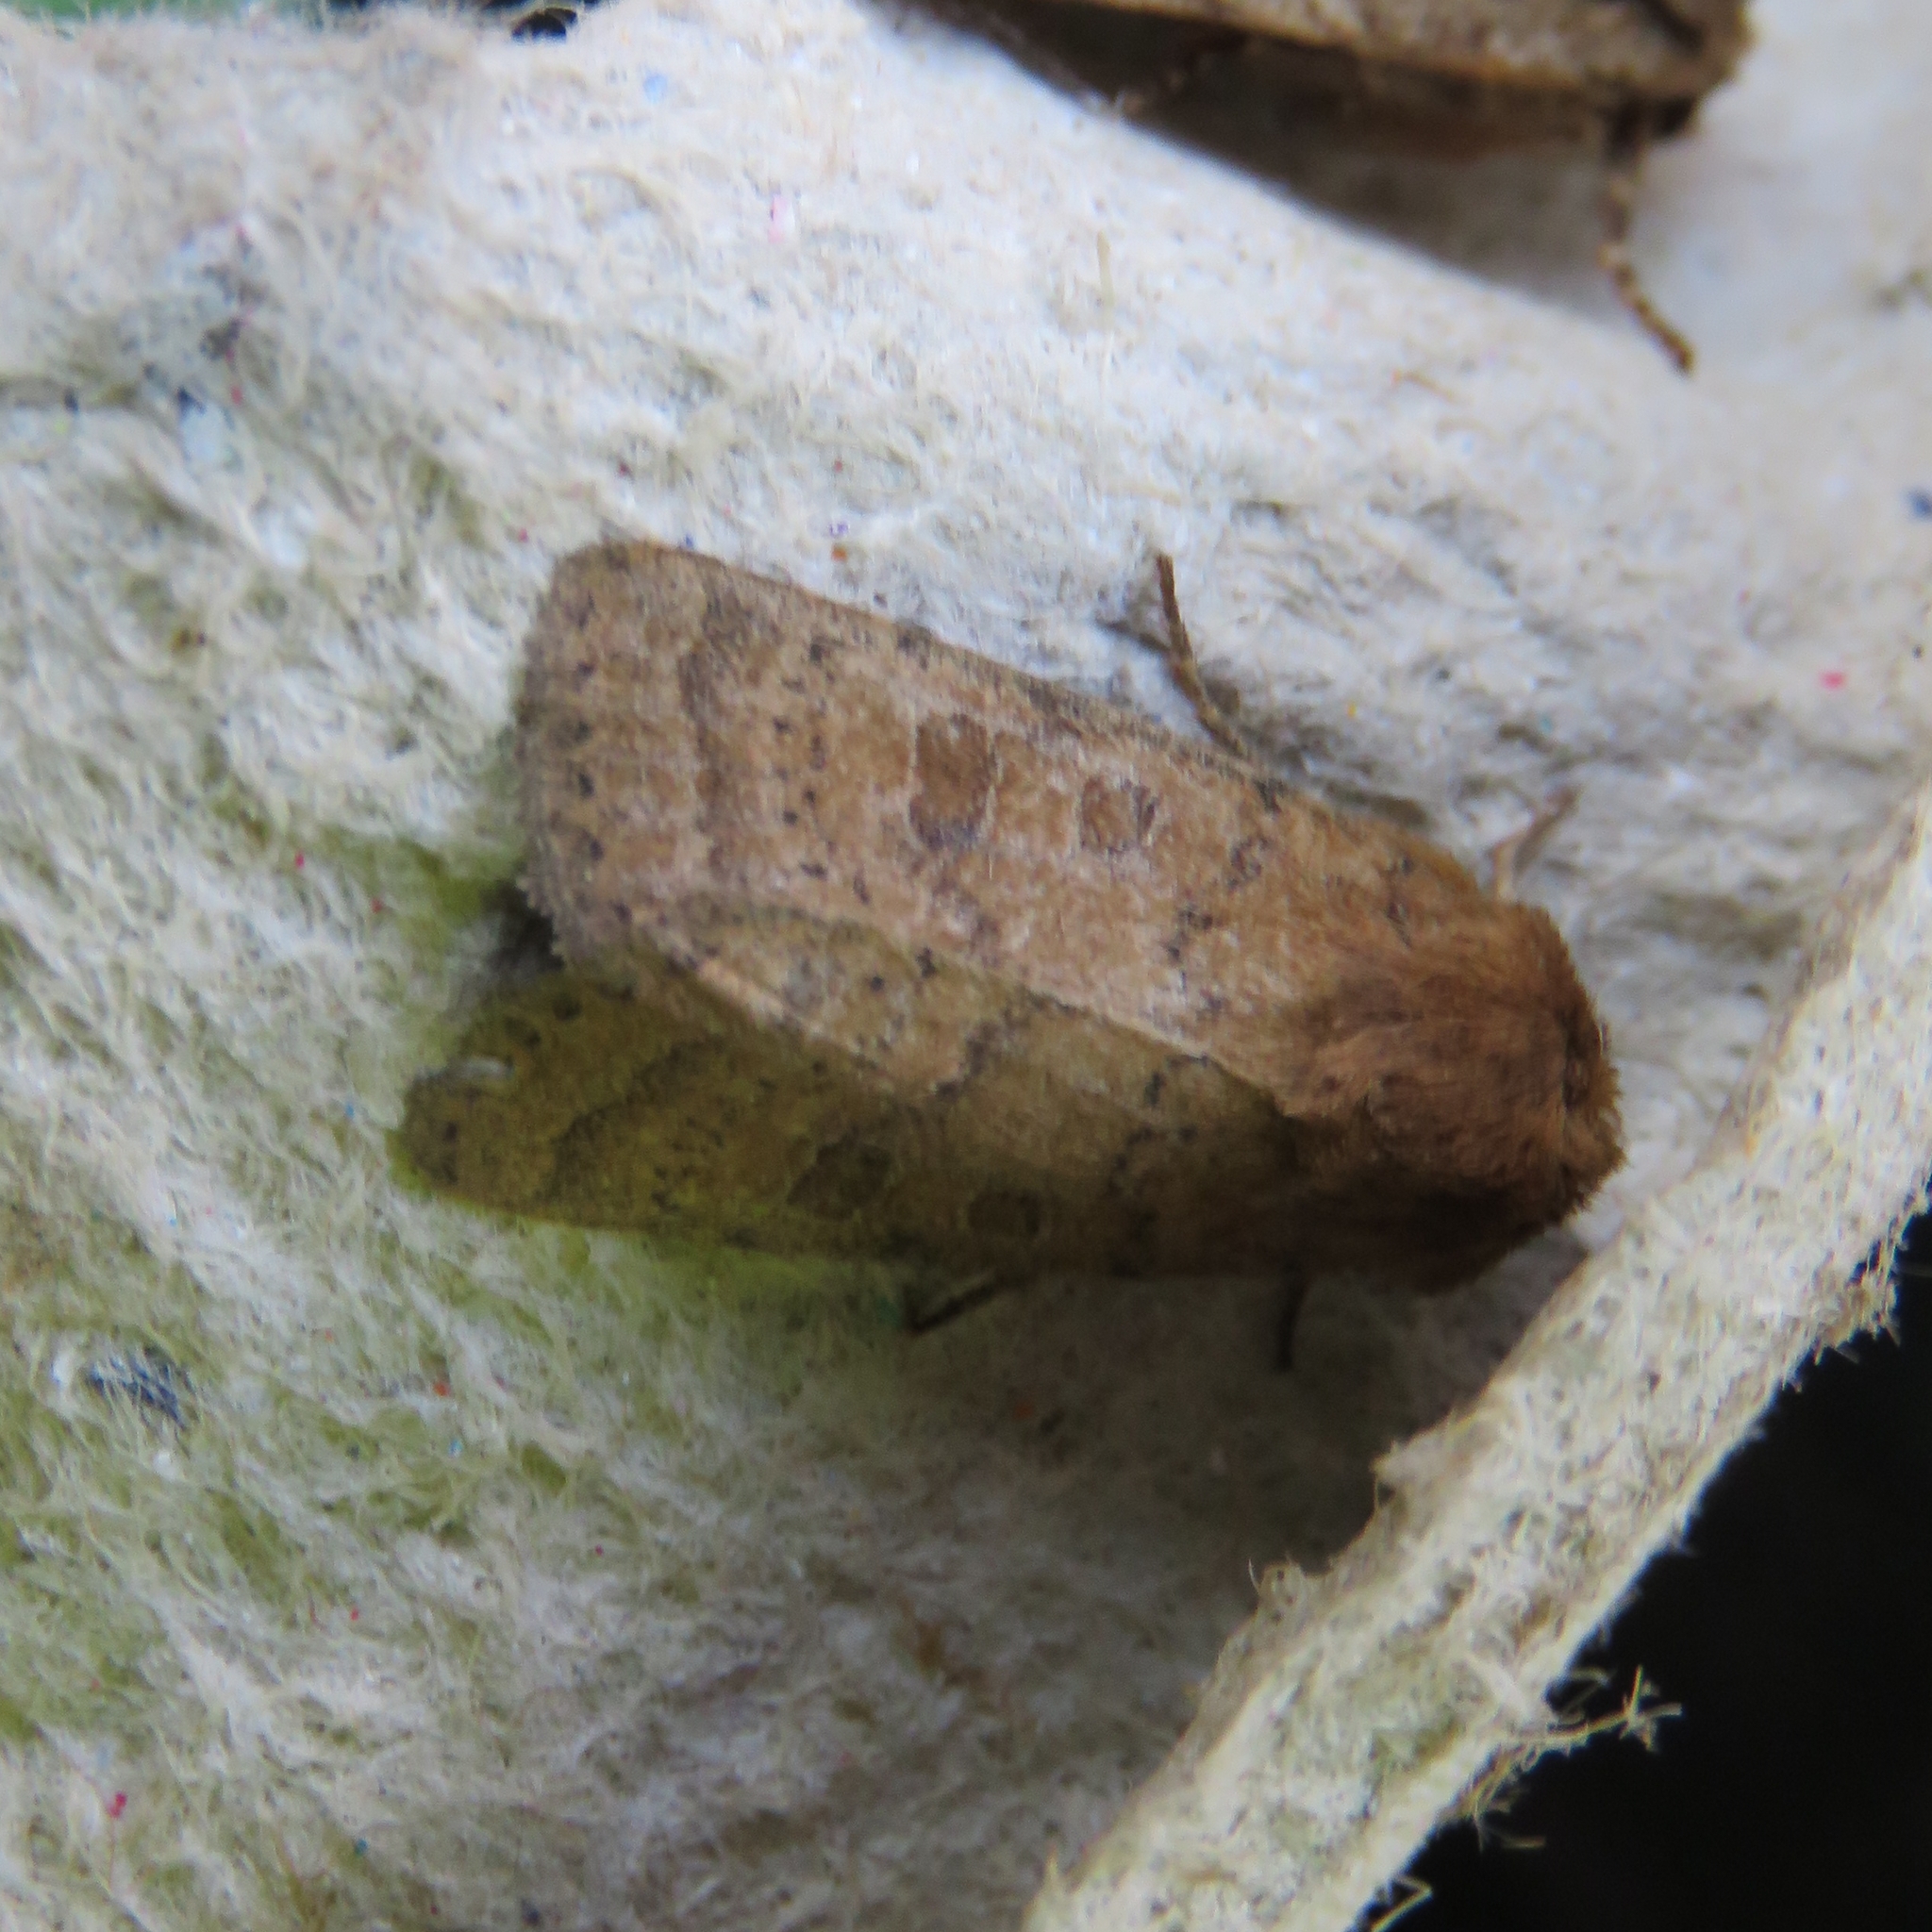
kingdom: Animalia
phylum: Arthropoda
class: Insecta
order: Lepidoptera
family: Noctuidae
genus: Hoplodrina
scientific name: Hoplodrina octogenaria
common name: Uncertain
